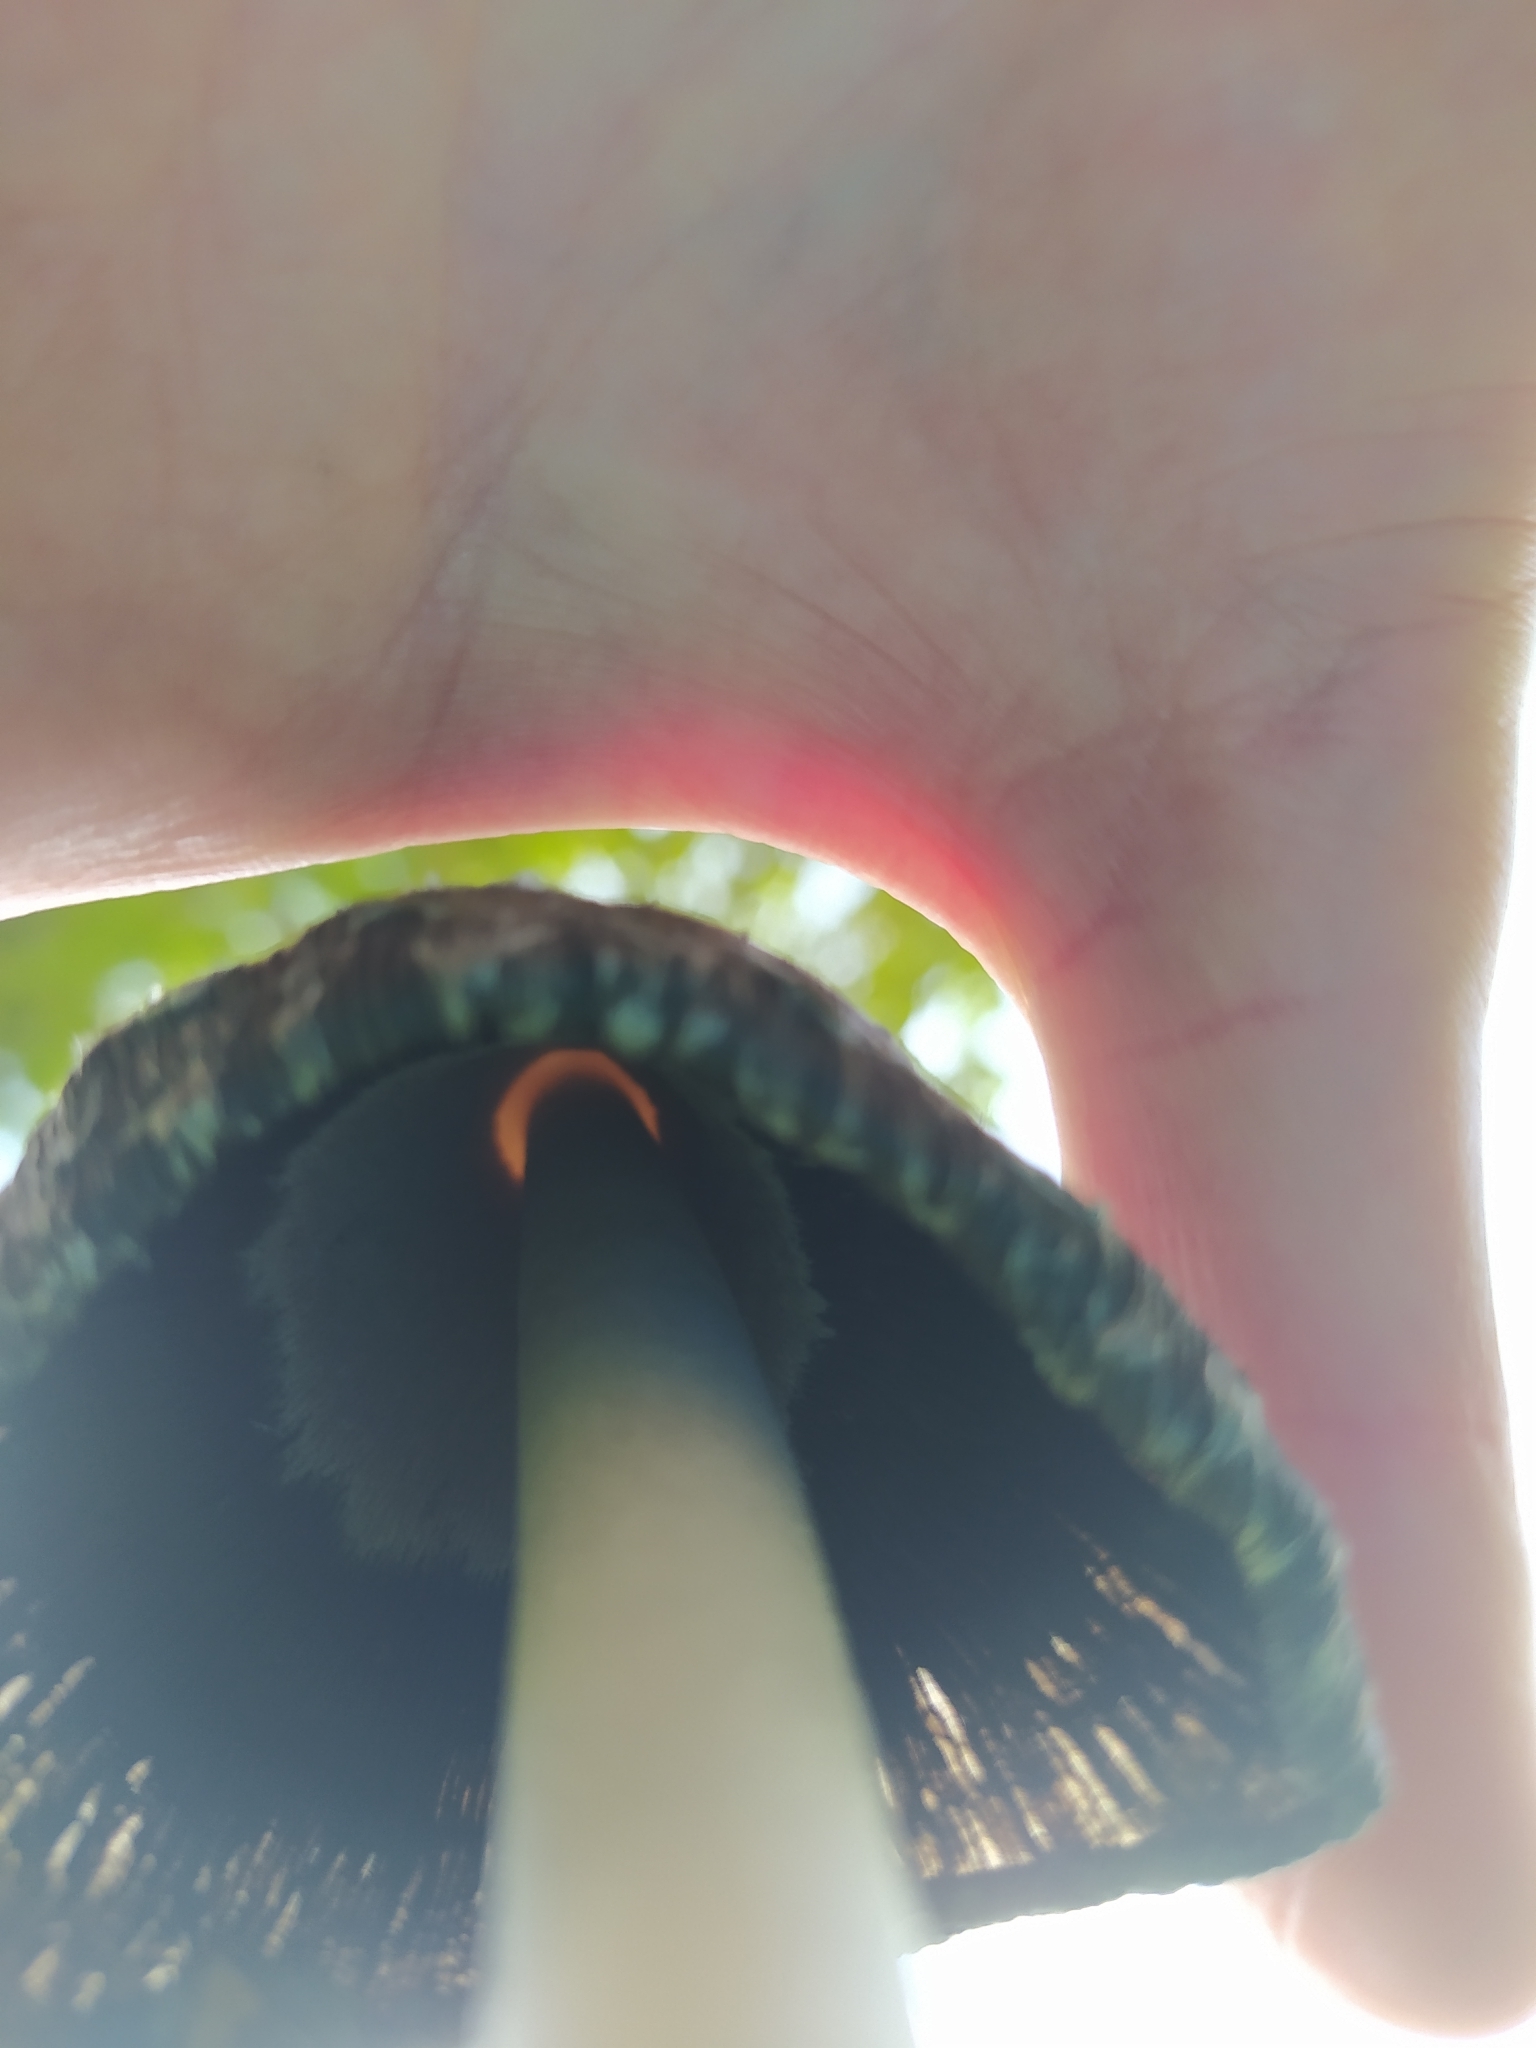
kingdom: Fungi
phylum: Basidiomycota
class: Agaricomycetes
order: Agaricales
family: Agaricaceae
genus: Coprinus
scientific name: Coprinus comatus
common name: Lawyer's wig
